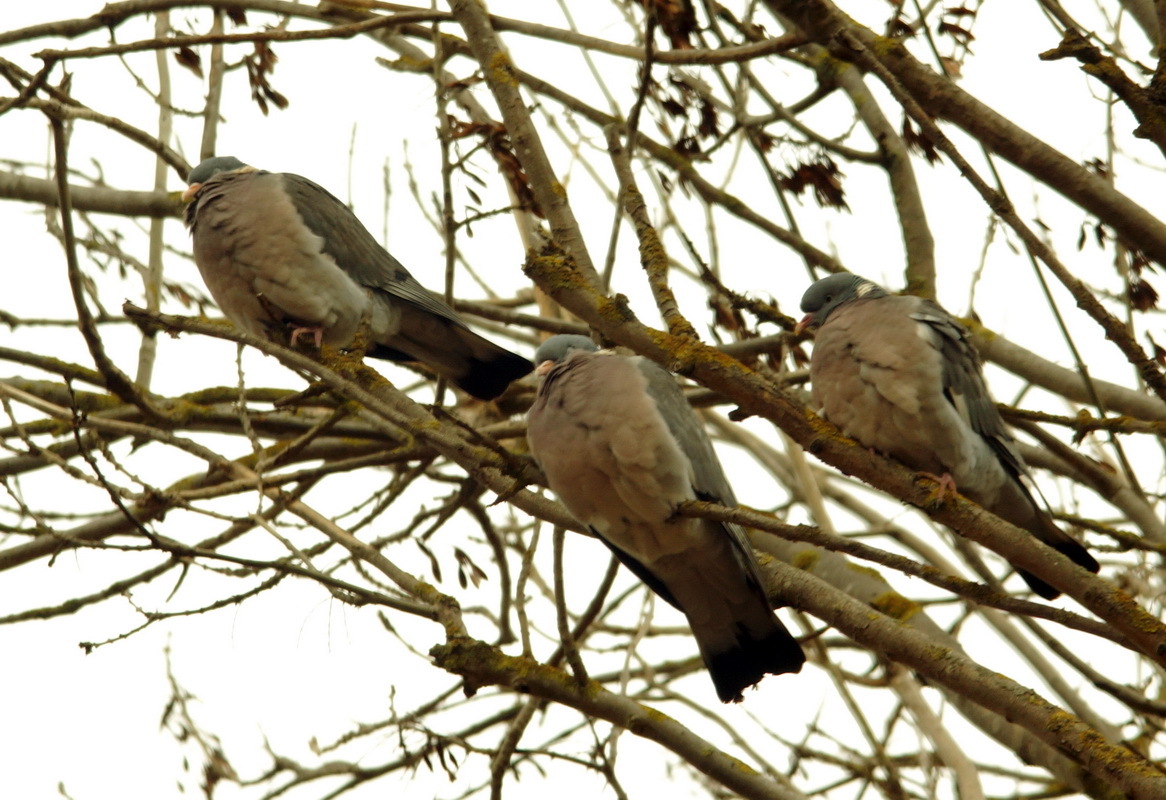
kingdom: Animalia
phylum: Chordata
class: Aves
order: Columbiformes
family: Columbidae
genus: Columba
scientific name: Columba palumbus
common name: Common wood pigeon
